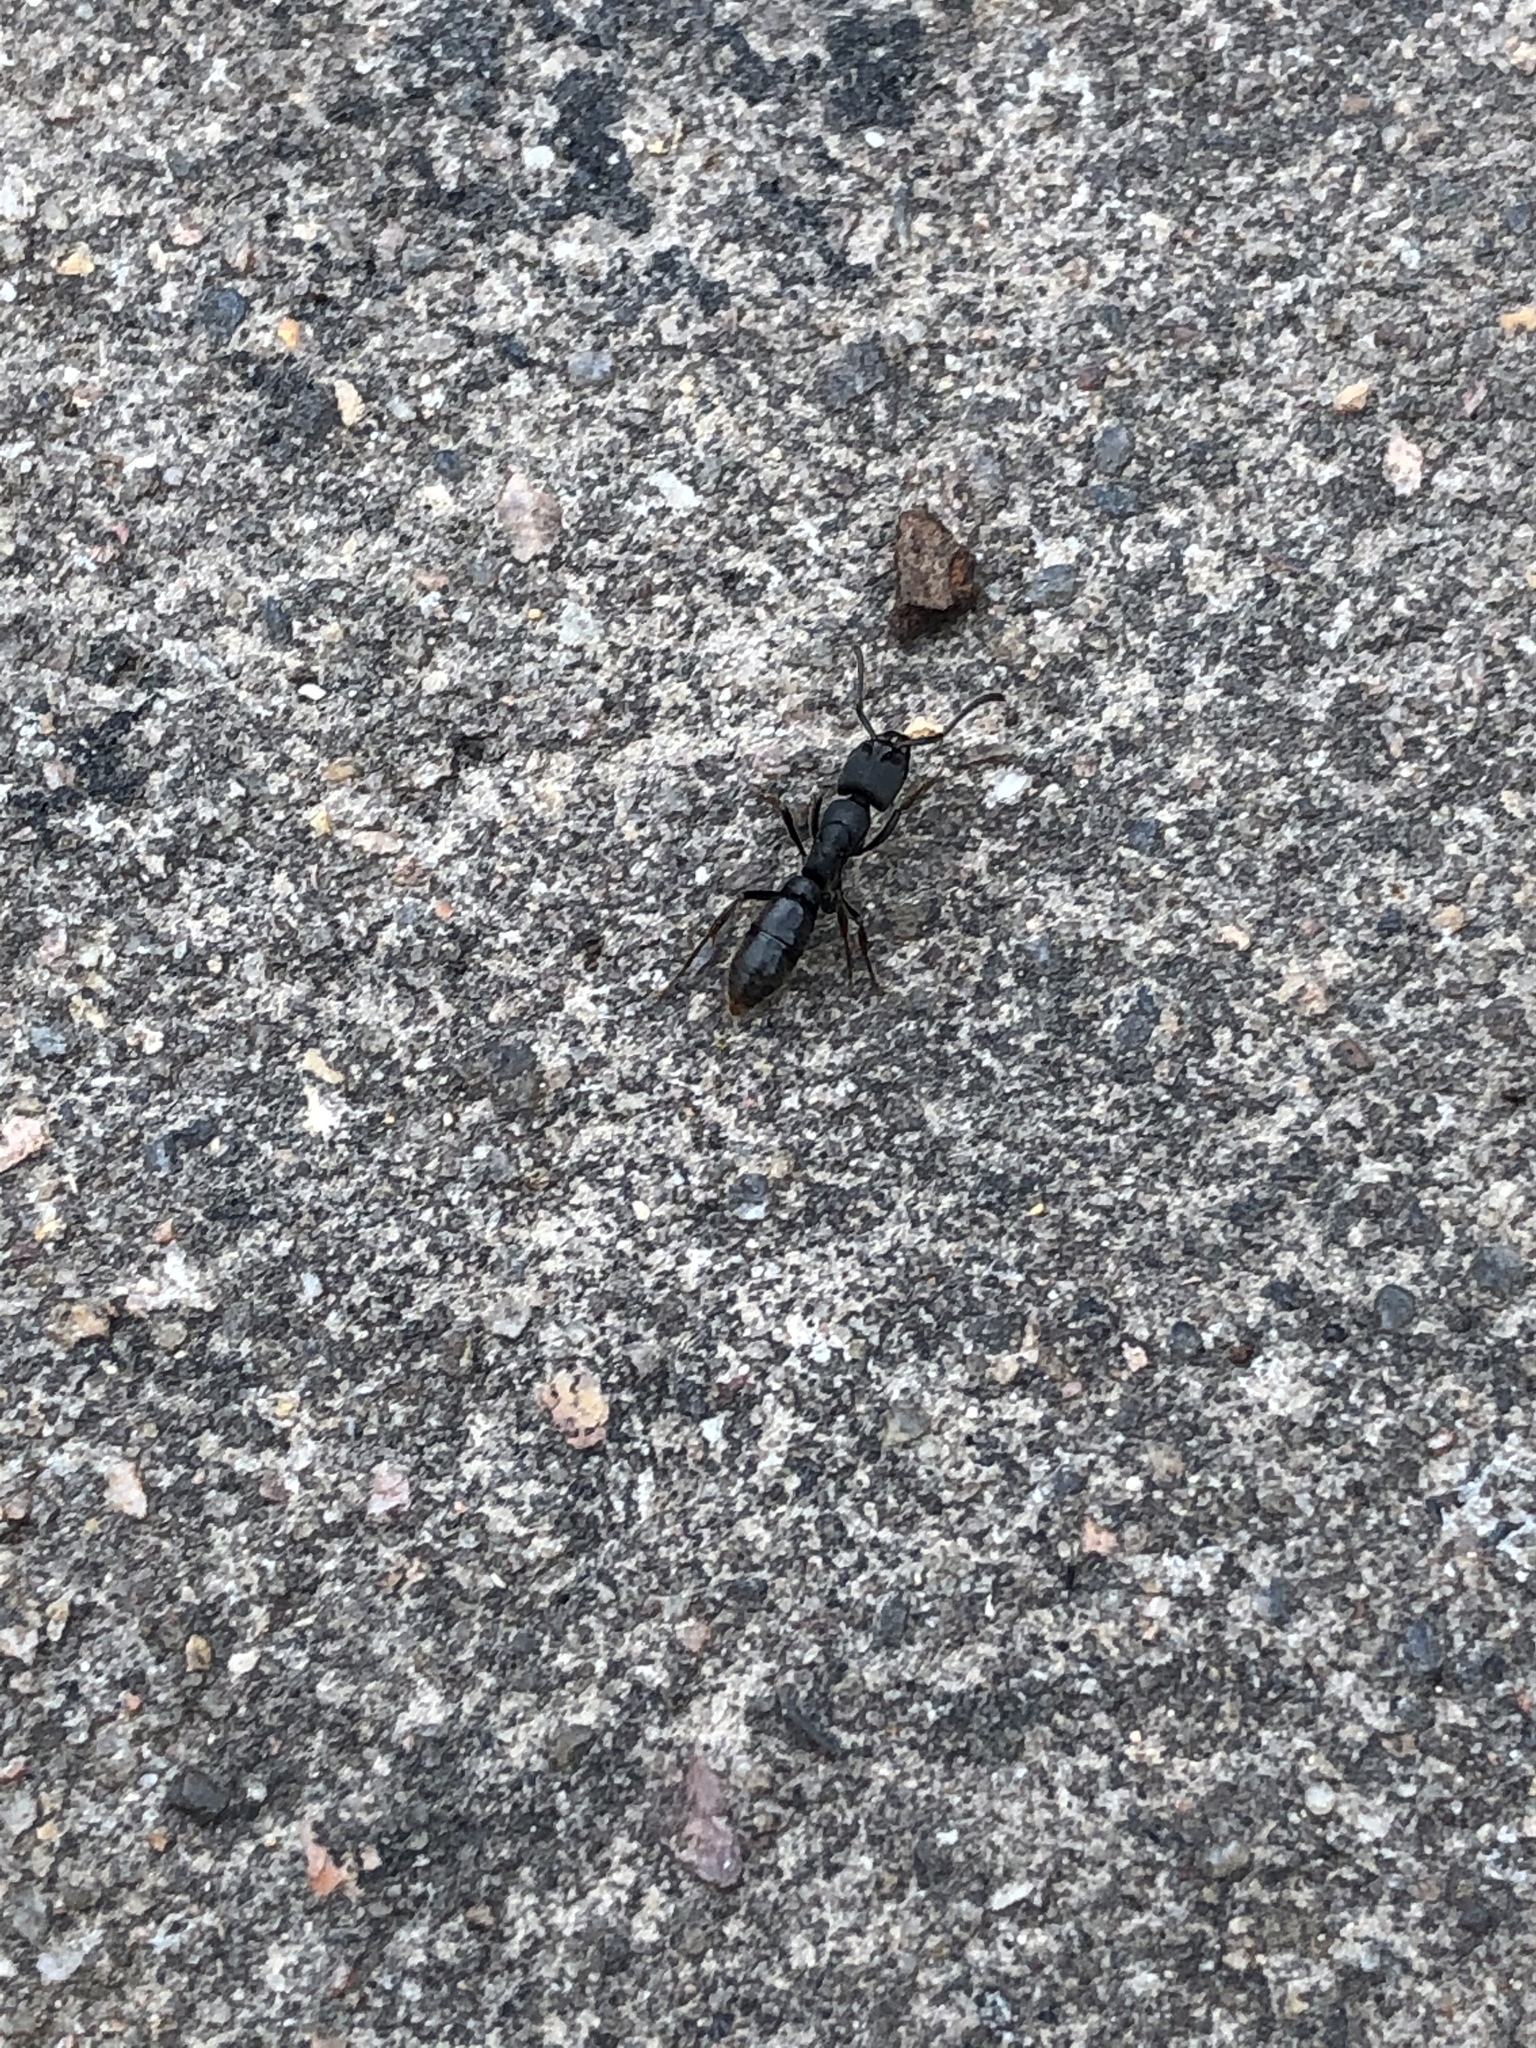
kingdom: Animalia
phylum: Arthropoda
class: Insecta
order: Hymenoptera
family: Formicidae
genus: Pachycondyla
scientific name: Pachycondyla harpax
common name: Ant
